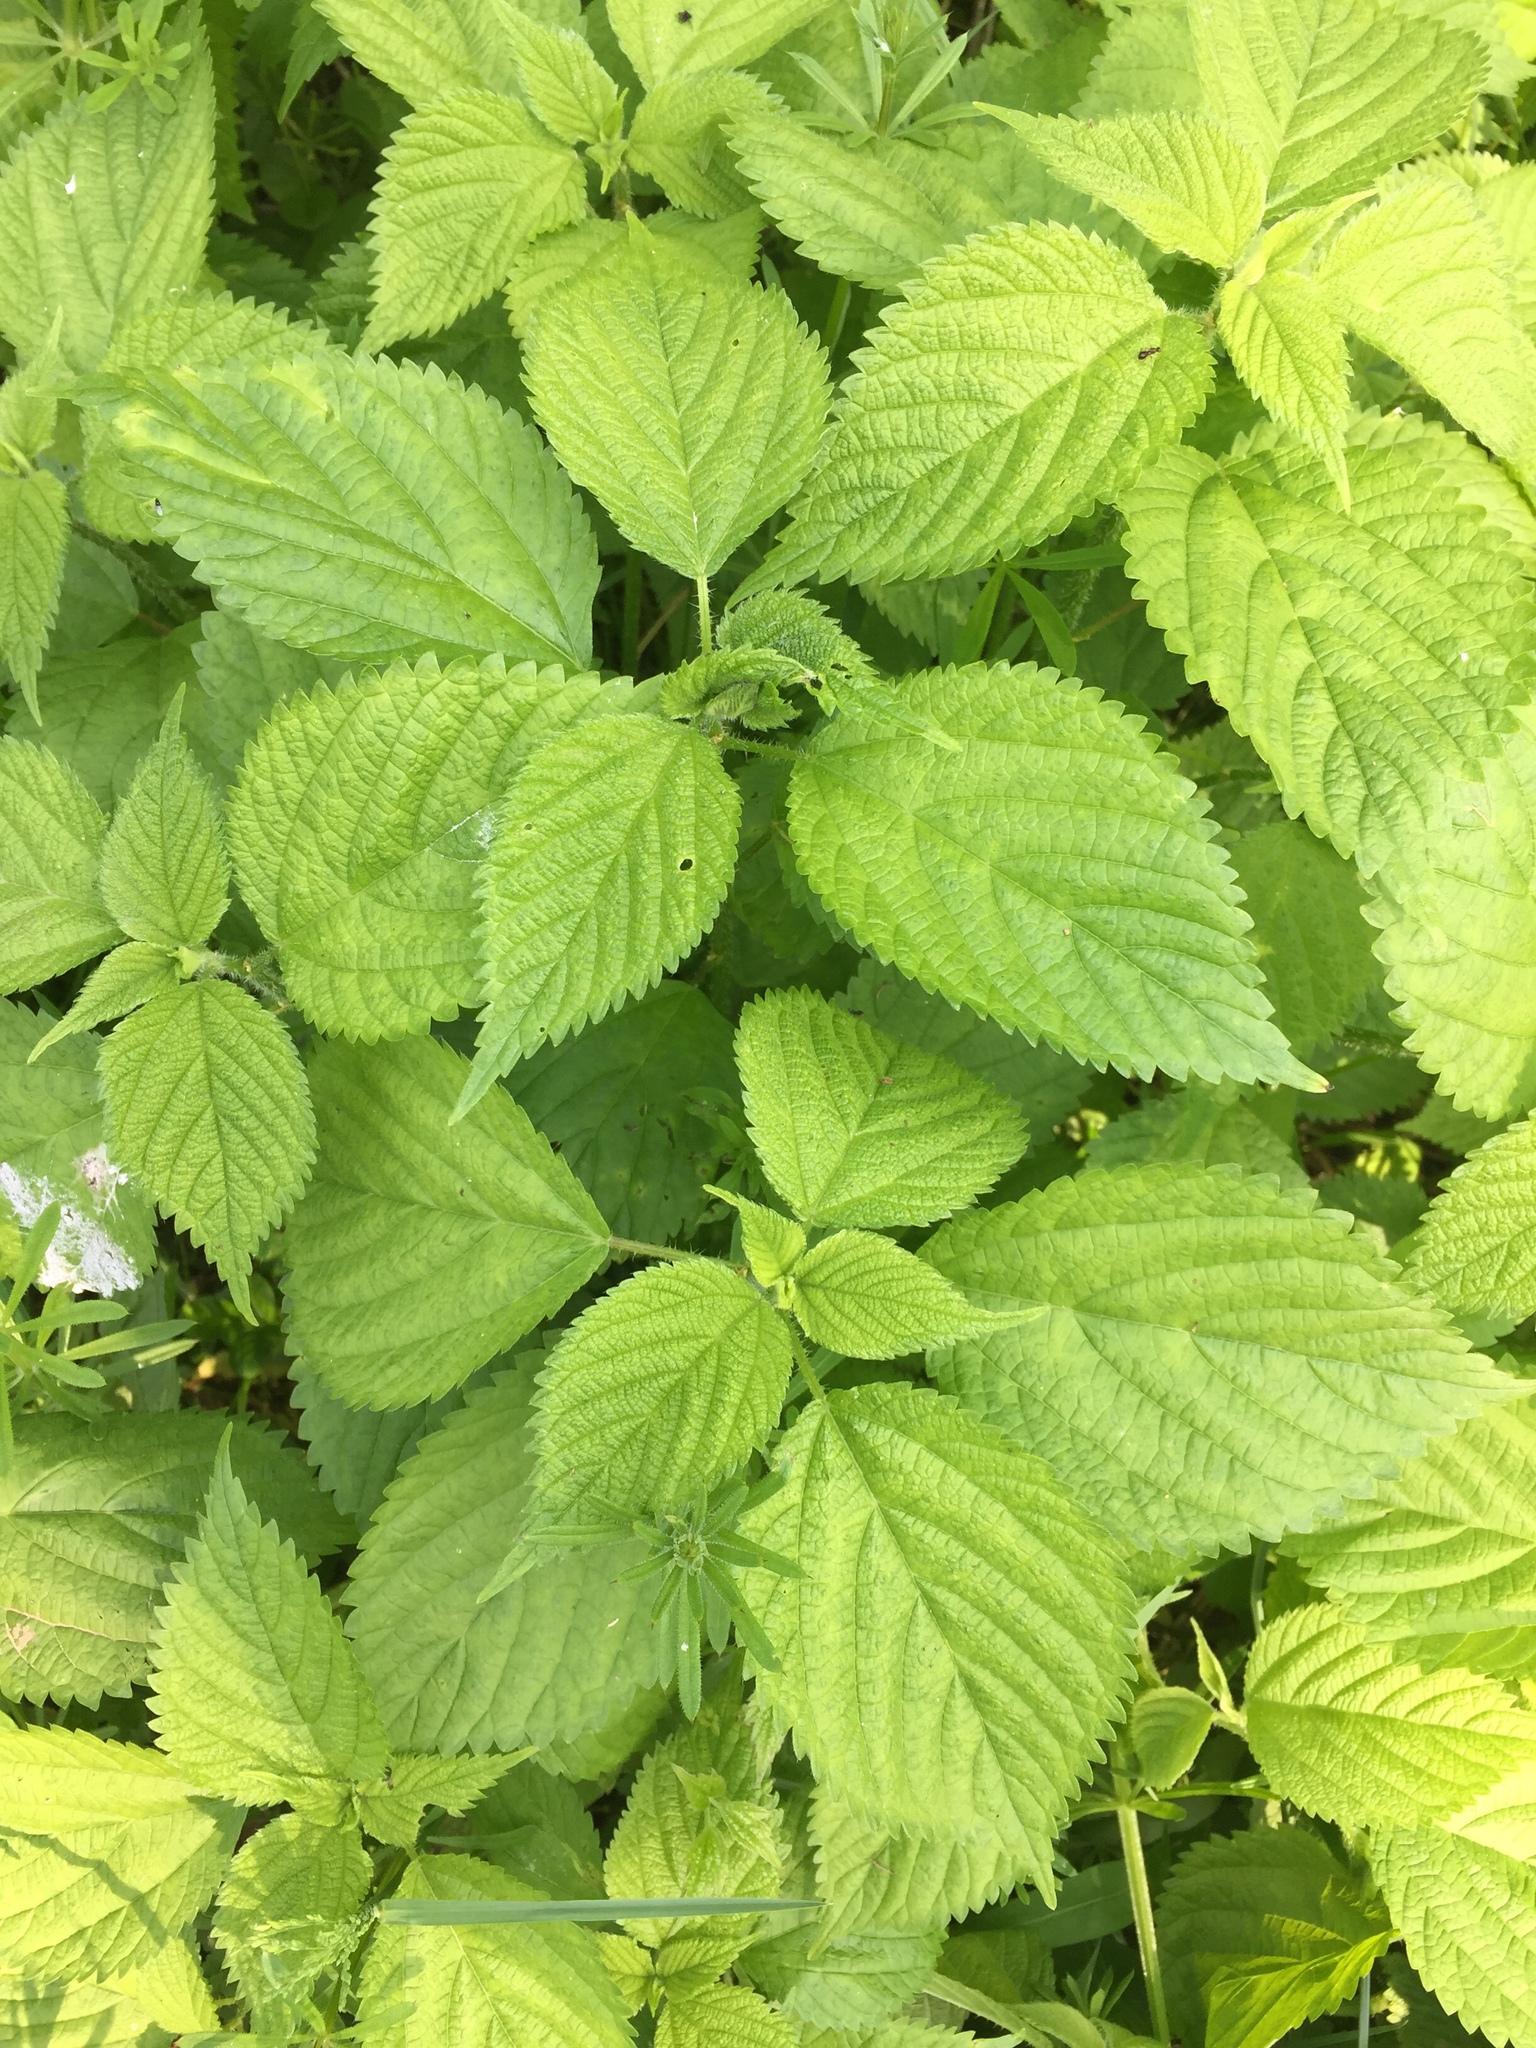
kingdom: Plantae
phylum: Tracheophyta
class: Magnoliopsida
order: Rosales
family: Urticaceae
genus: Laportea
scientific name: Laportea canadensis
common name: Canada nettle
